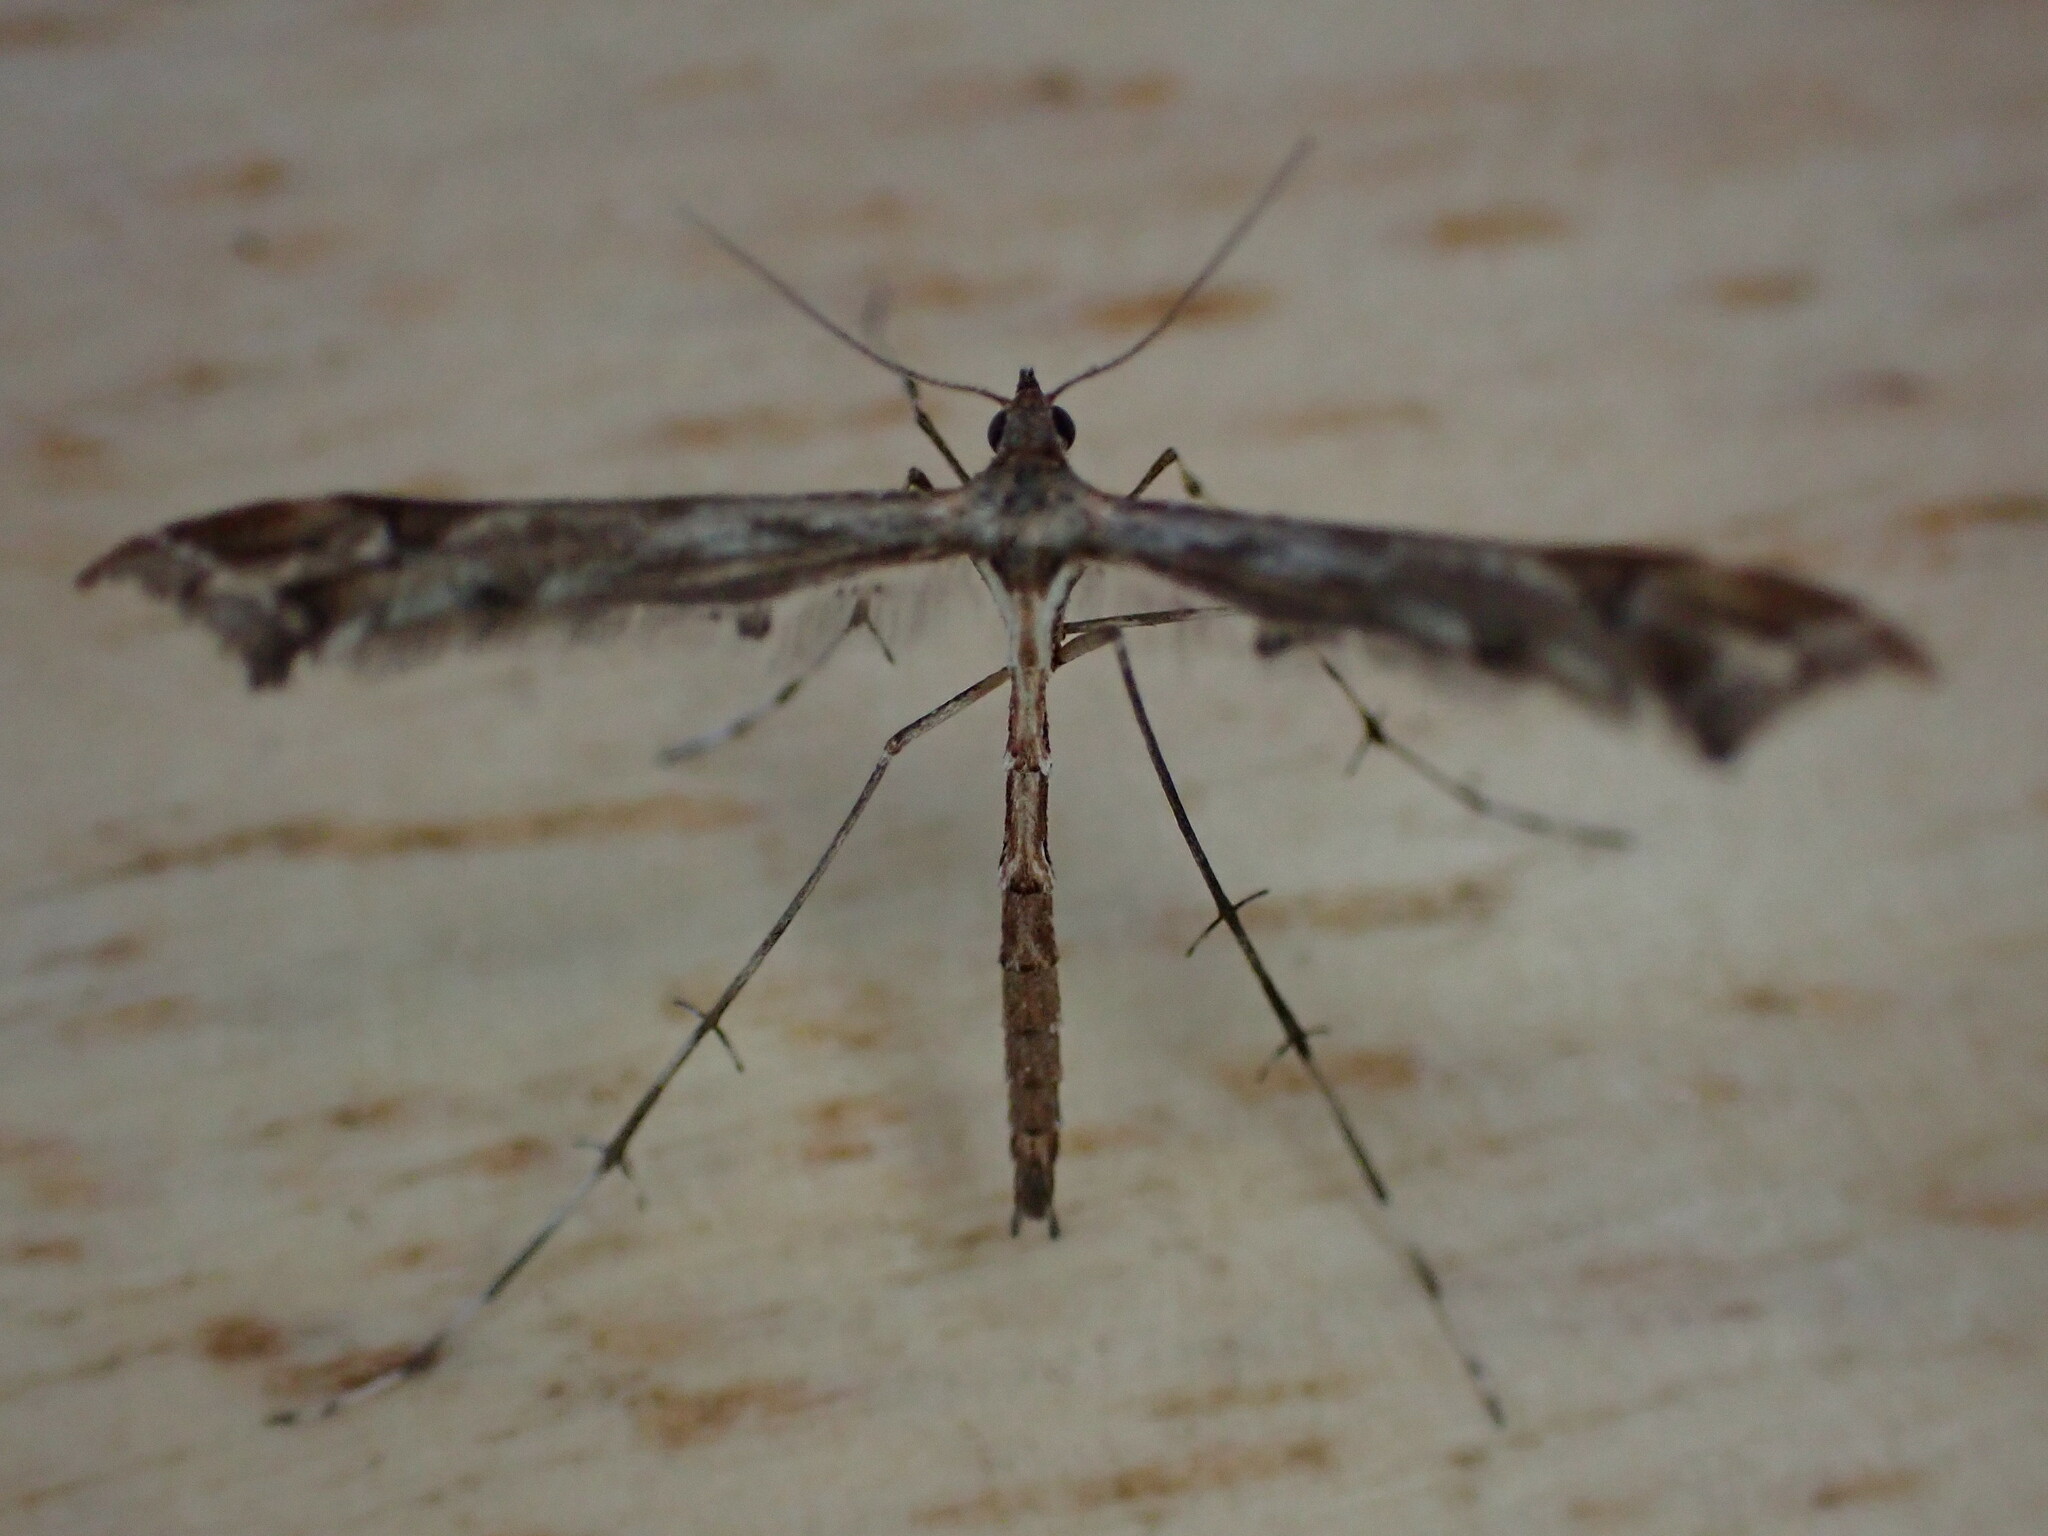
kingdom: Animalia
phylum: Arthropoda
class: Insecta
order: Lepidoptera
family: Pterophoridae
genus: Amblyptilia
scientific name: Amblyptilia acanthadactyla
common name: Beautiful plume
